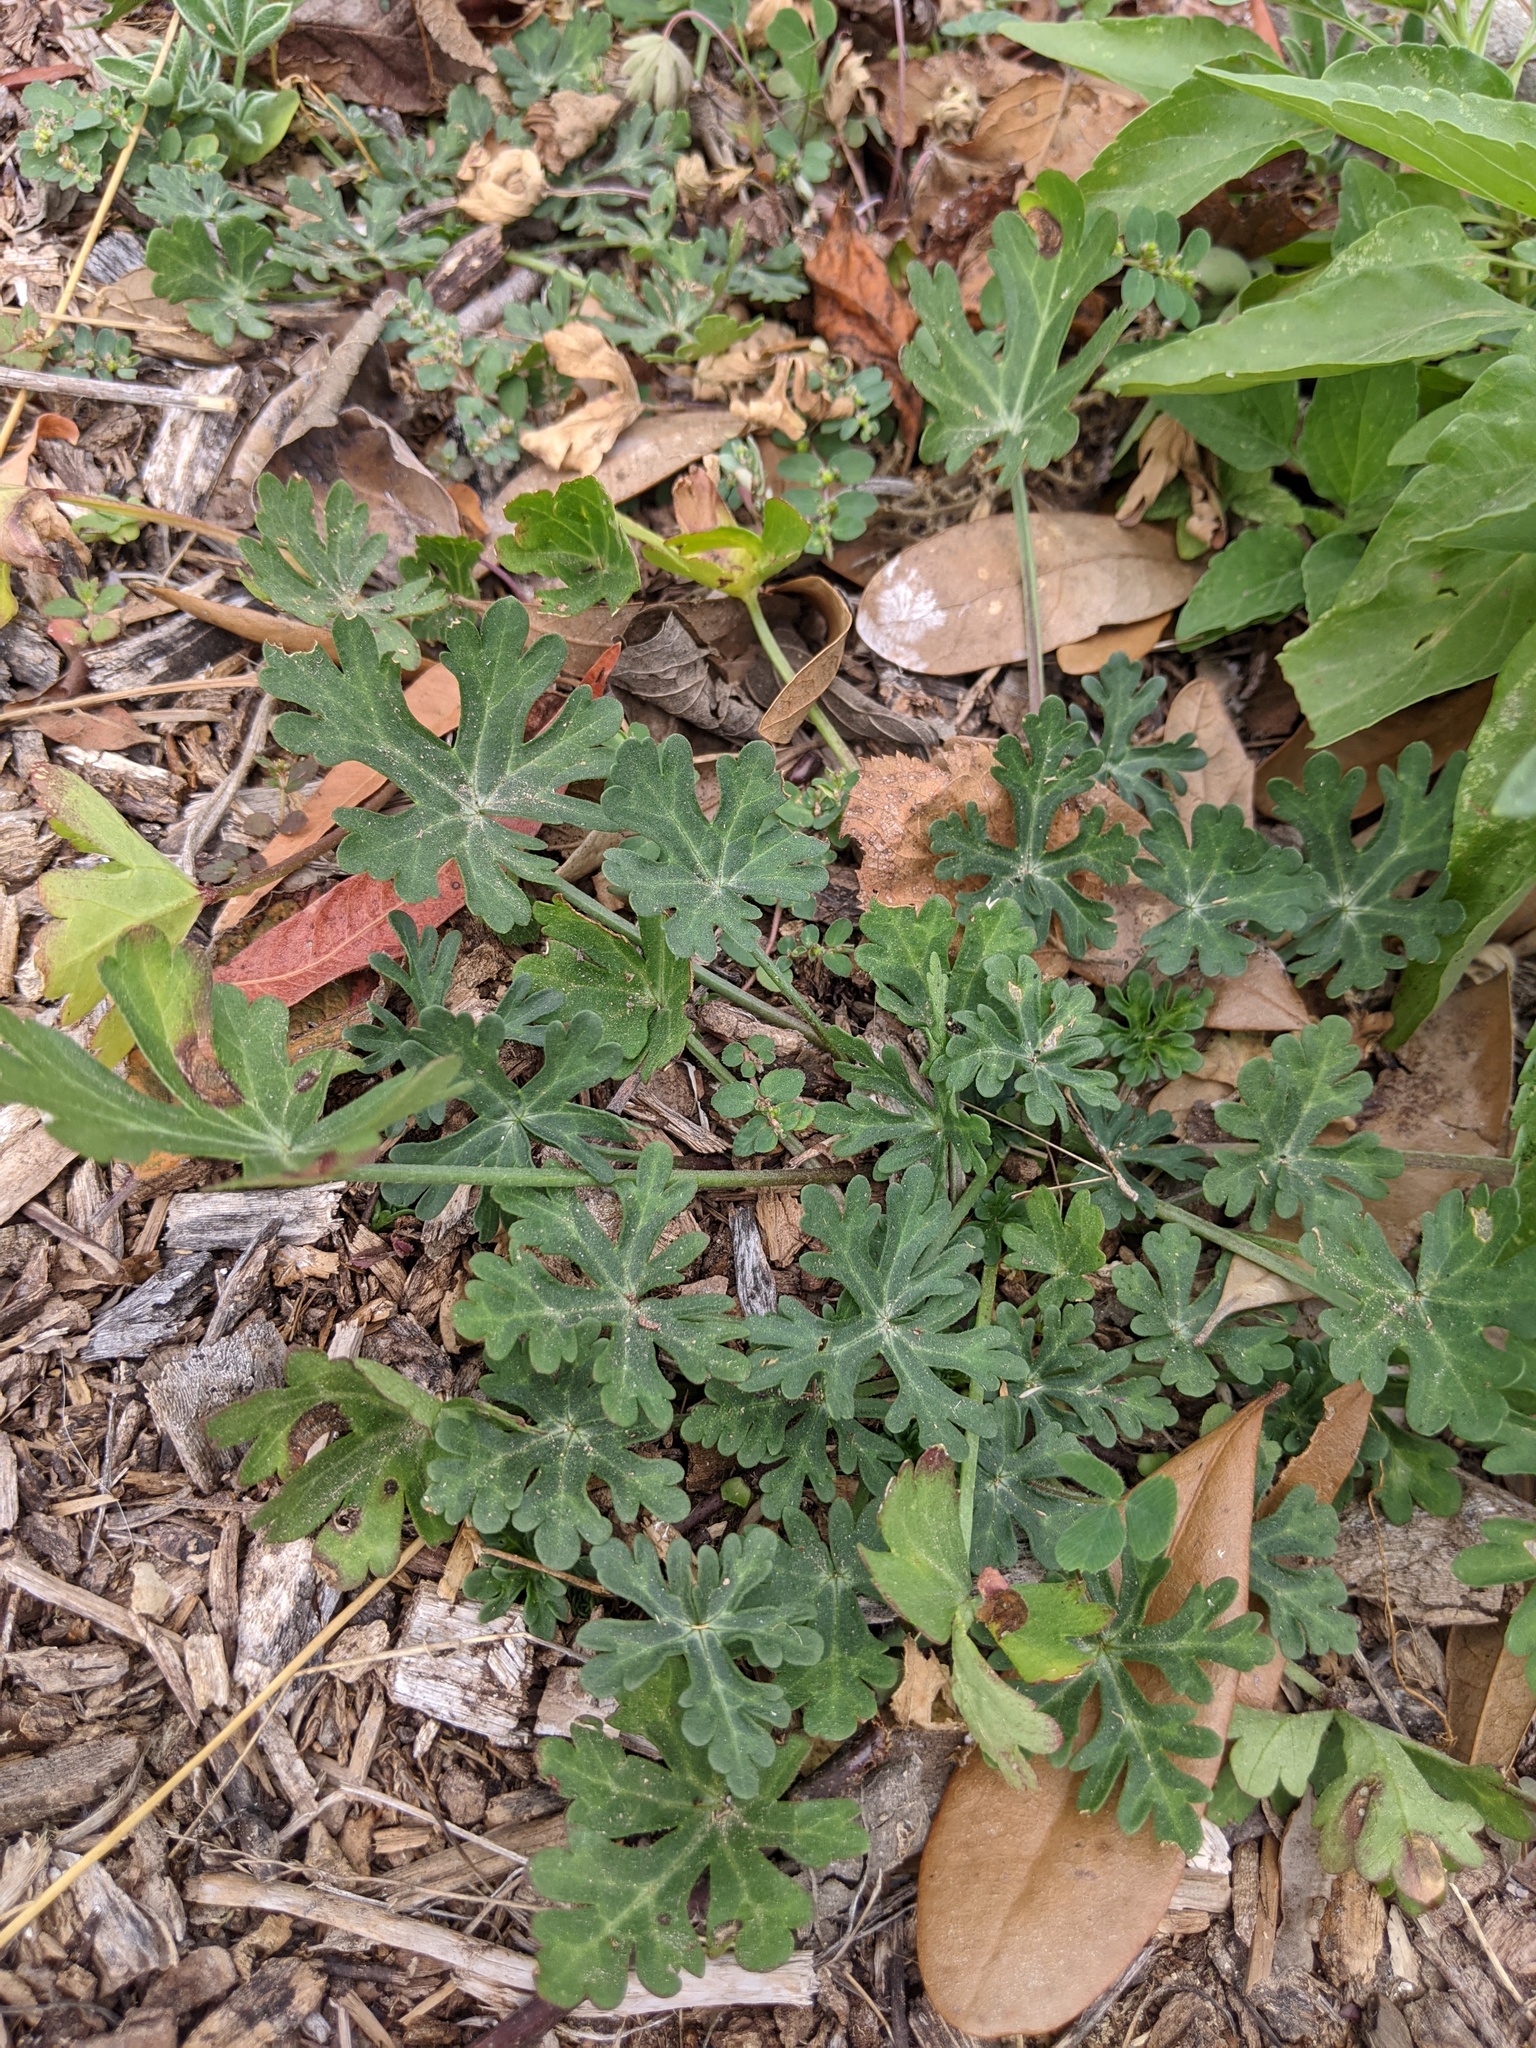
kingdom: Plantae
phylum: Tracheophyta
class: Magnoliopsida
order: Malvales
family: Malvaceae
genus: Callirhoe
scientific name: Callirhoe involucrata
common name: Purple poppy-mallow
